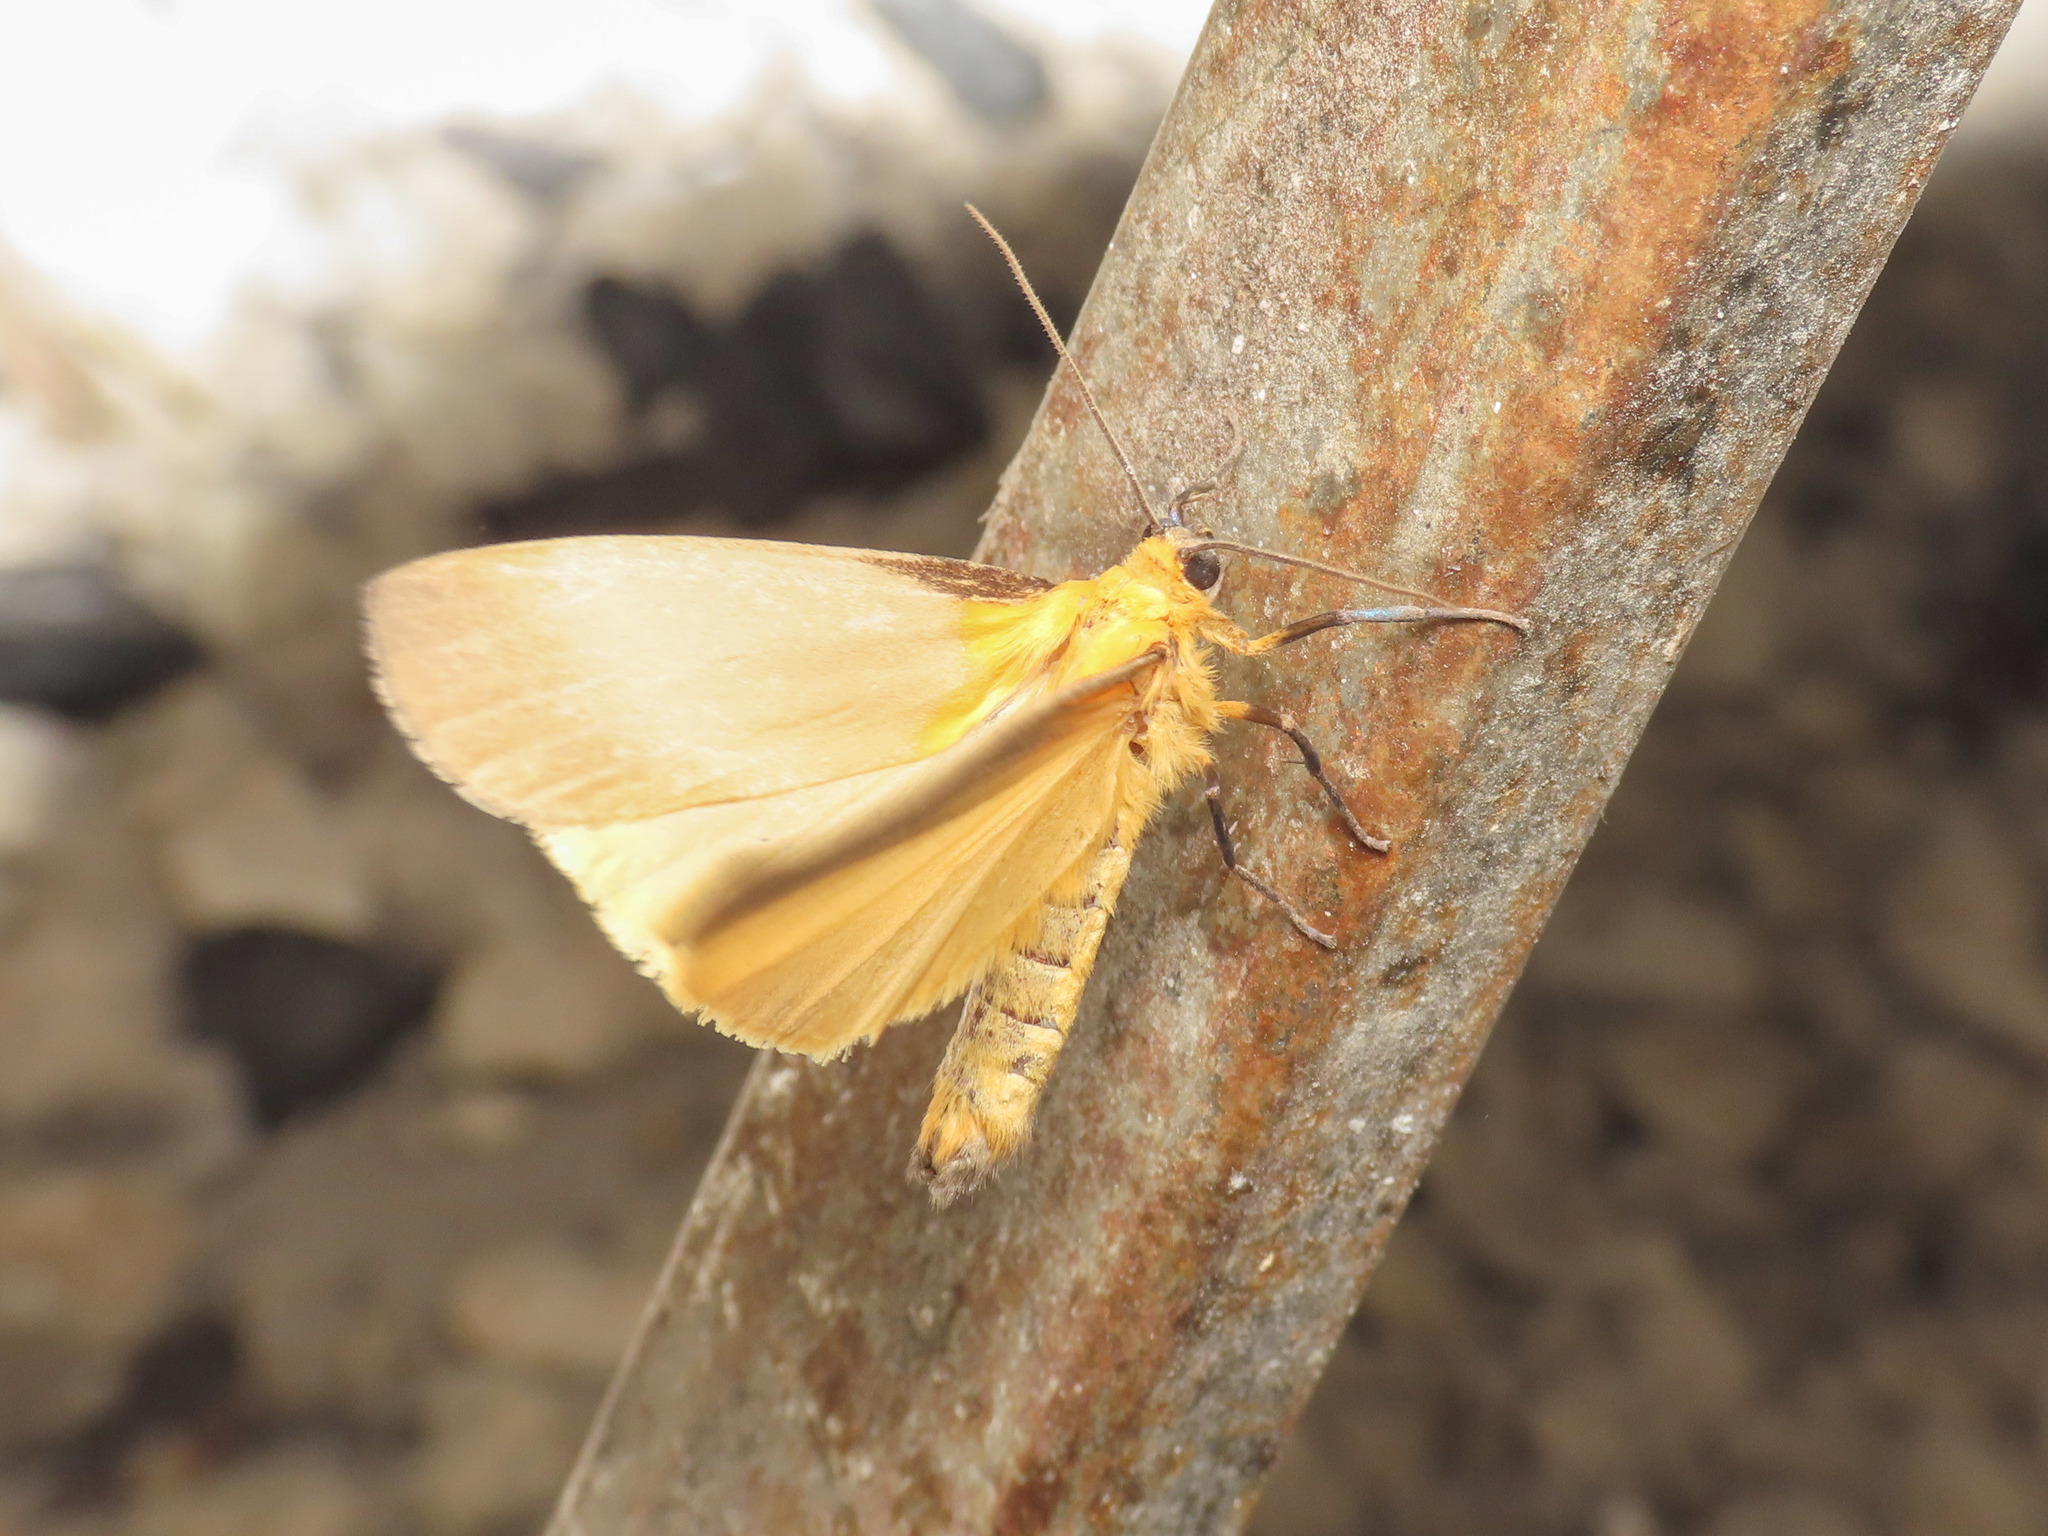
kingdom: Animalia
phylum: Arthropoda
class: Insecta
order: Lepidoptera
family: Erebidae
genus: Lithosia
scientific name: Lithosia quadra
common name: Four-spotted footman
